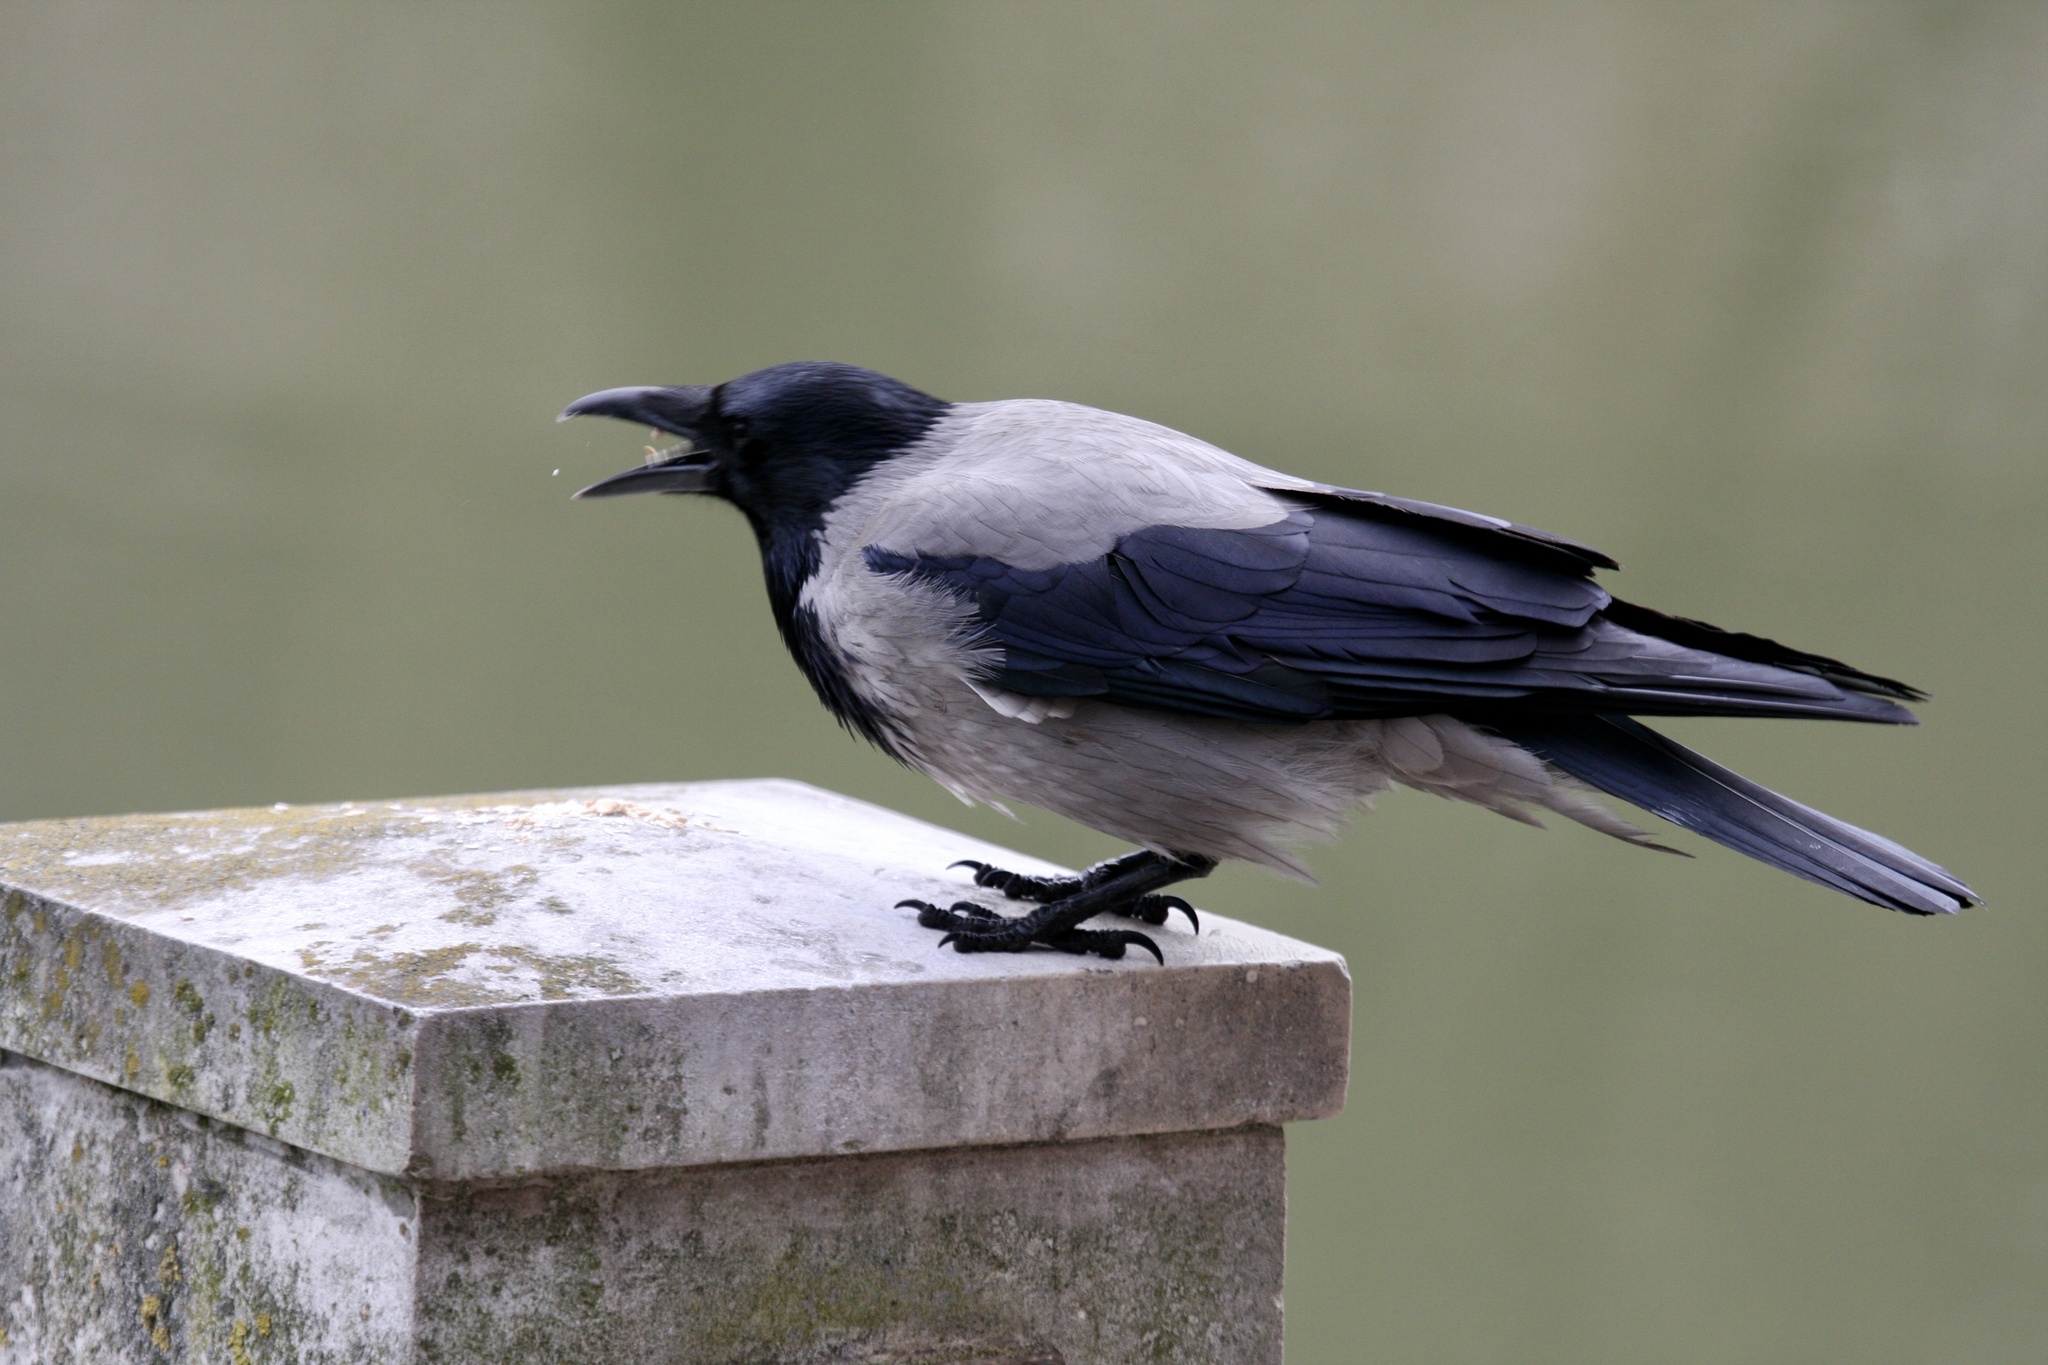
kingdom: Animalia
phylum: Chordata
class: Aves
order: Passeriformes
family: Corvidae
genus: Corvus
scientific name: Corvus cornix
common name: Hooded crow
